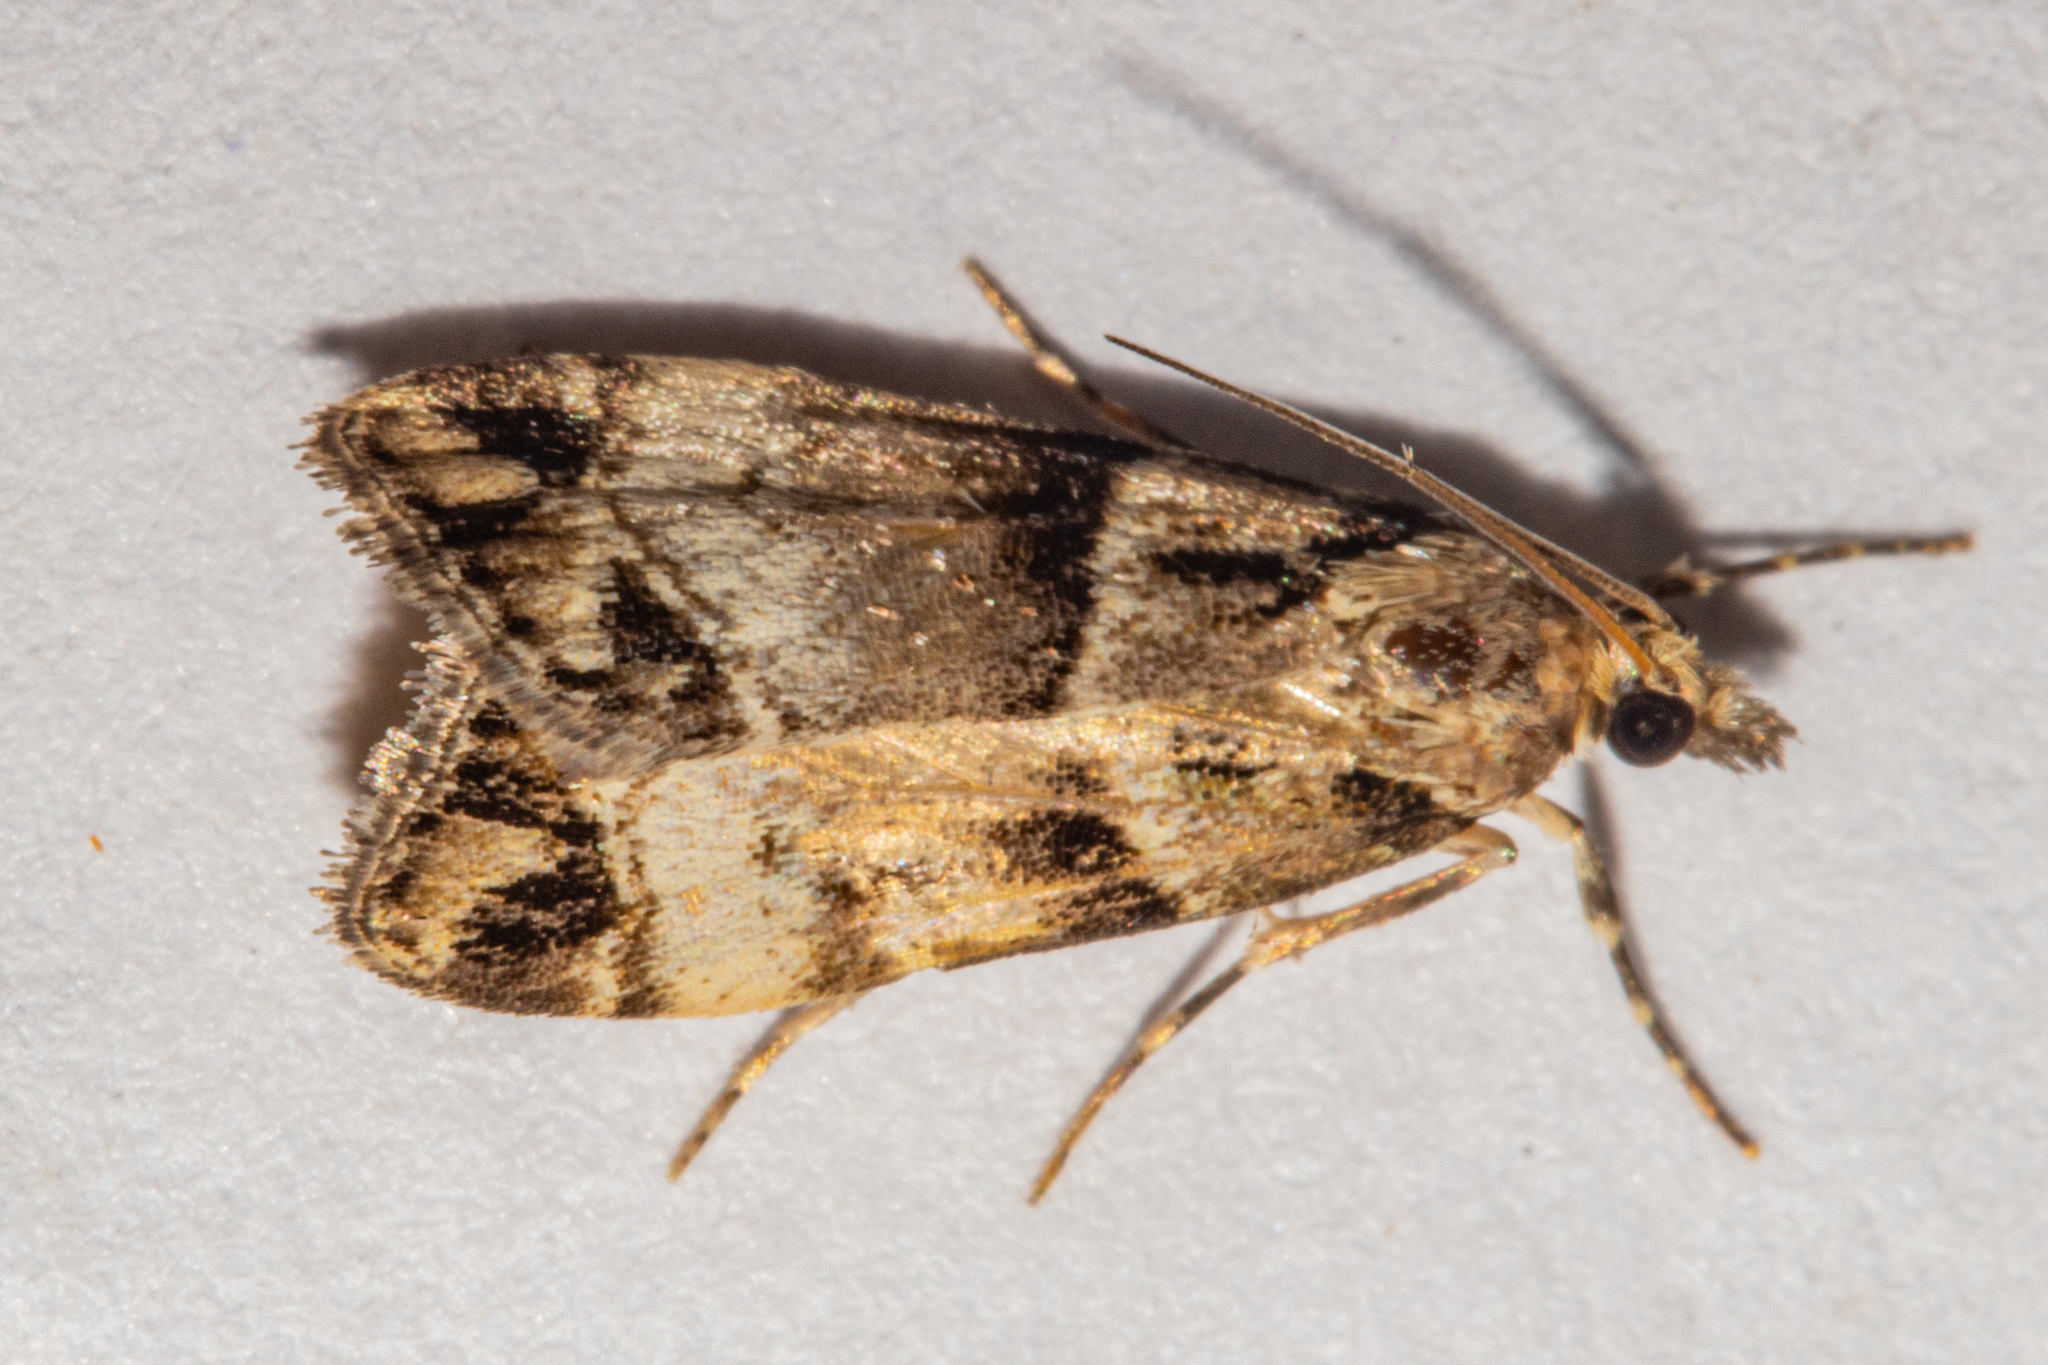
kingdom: Animalia
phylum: Arthropoda
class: Insecta
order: Lepidoptera
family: Crambidae
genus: Eudonia
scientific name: Eudonia periphanes
